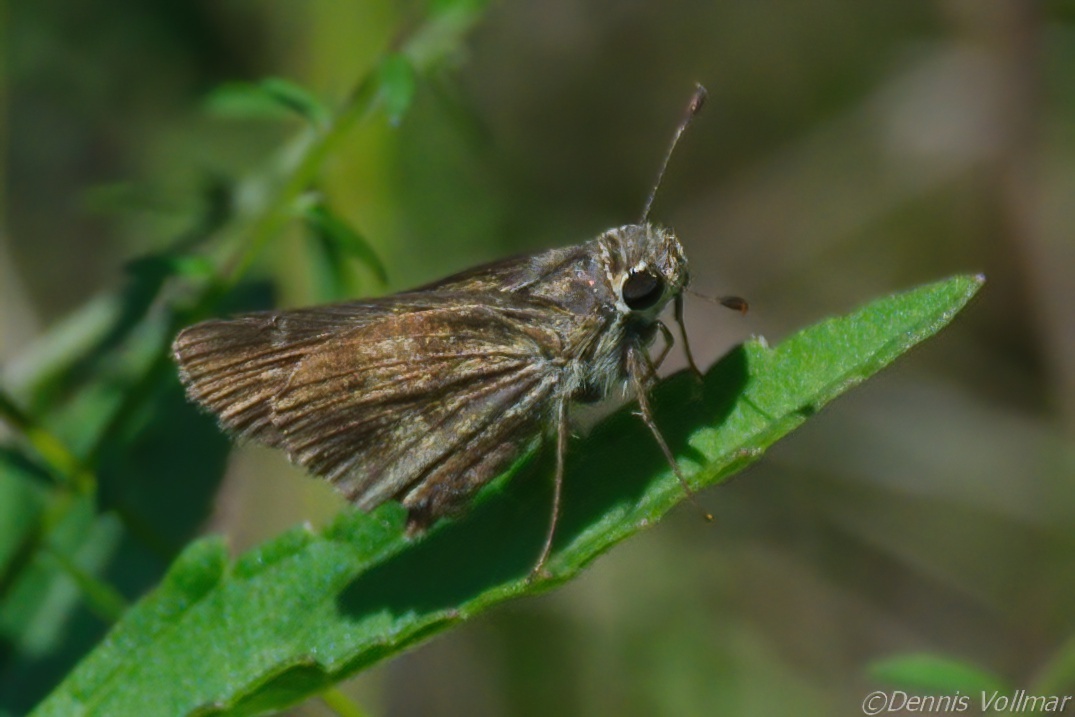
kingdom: Animalia
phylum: Arthropoda
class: Insecta
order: Lepidoptera
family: Hesperiidae
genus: Polites
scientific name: Polites vibex
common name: Whirlabout
